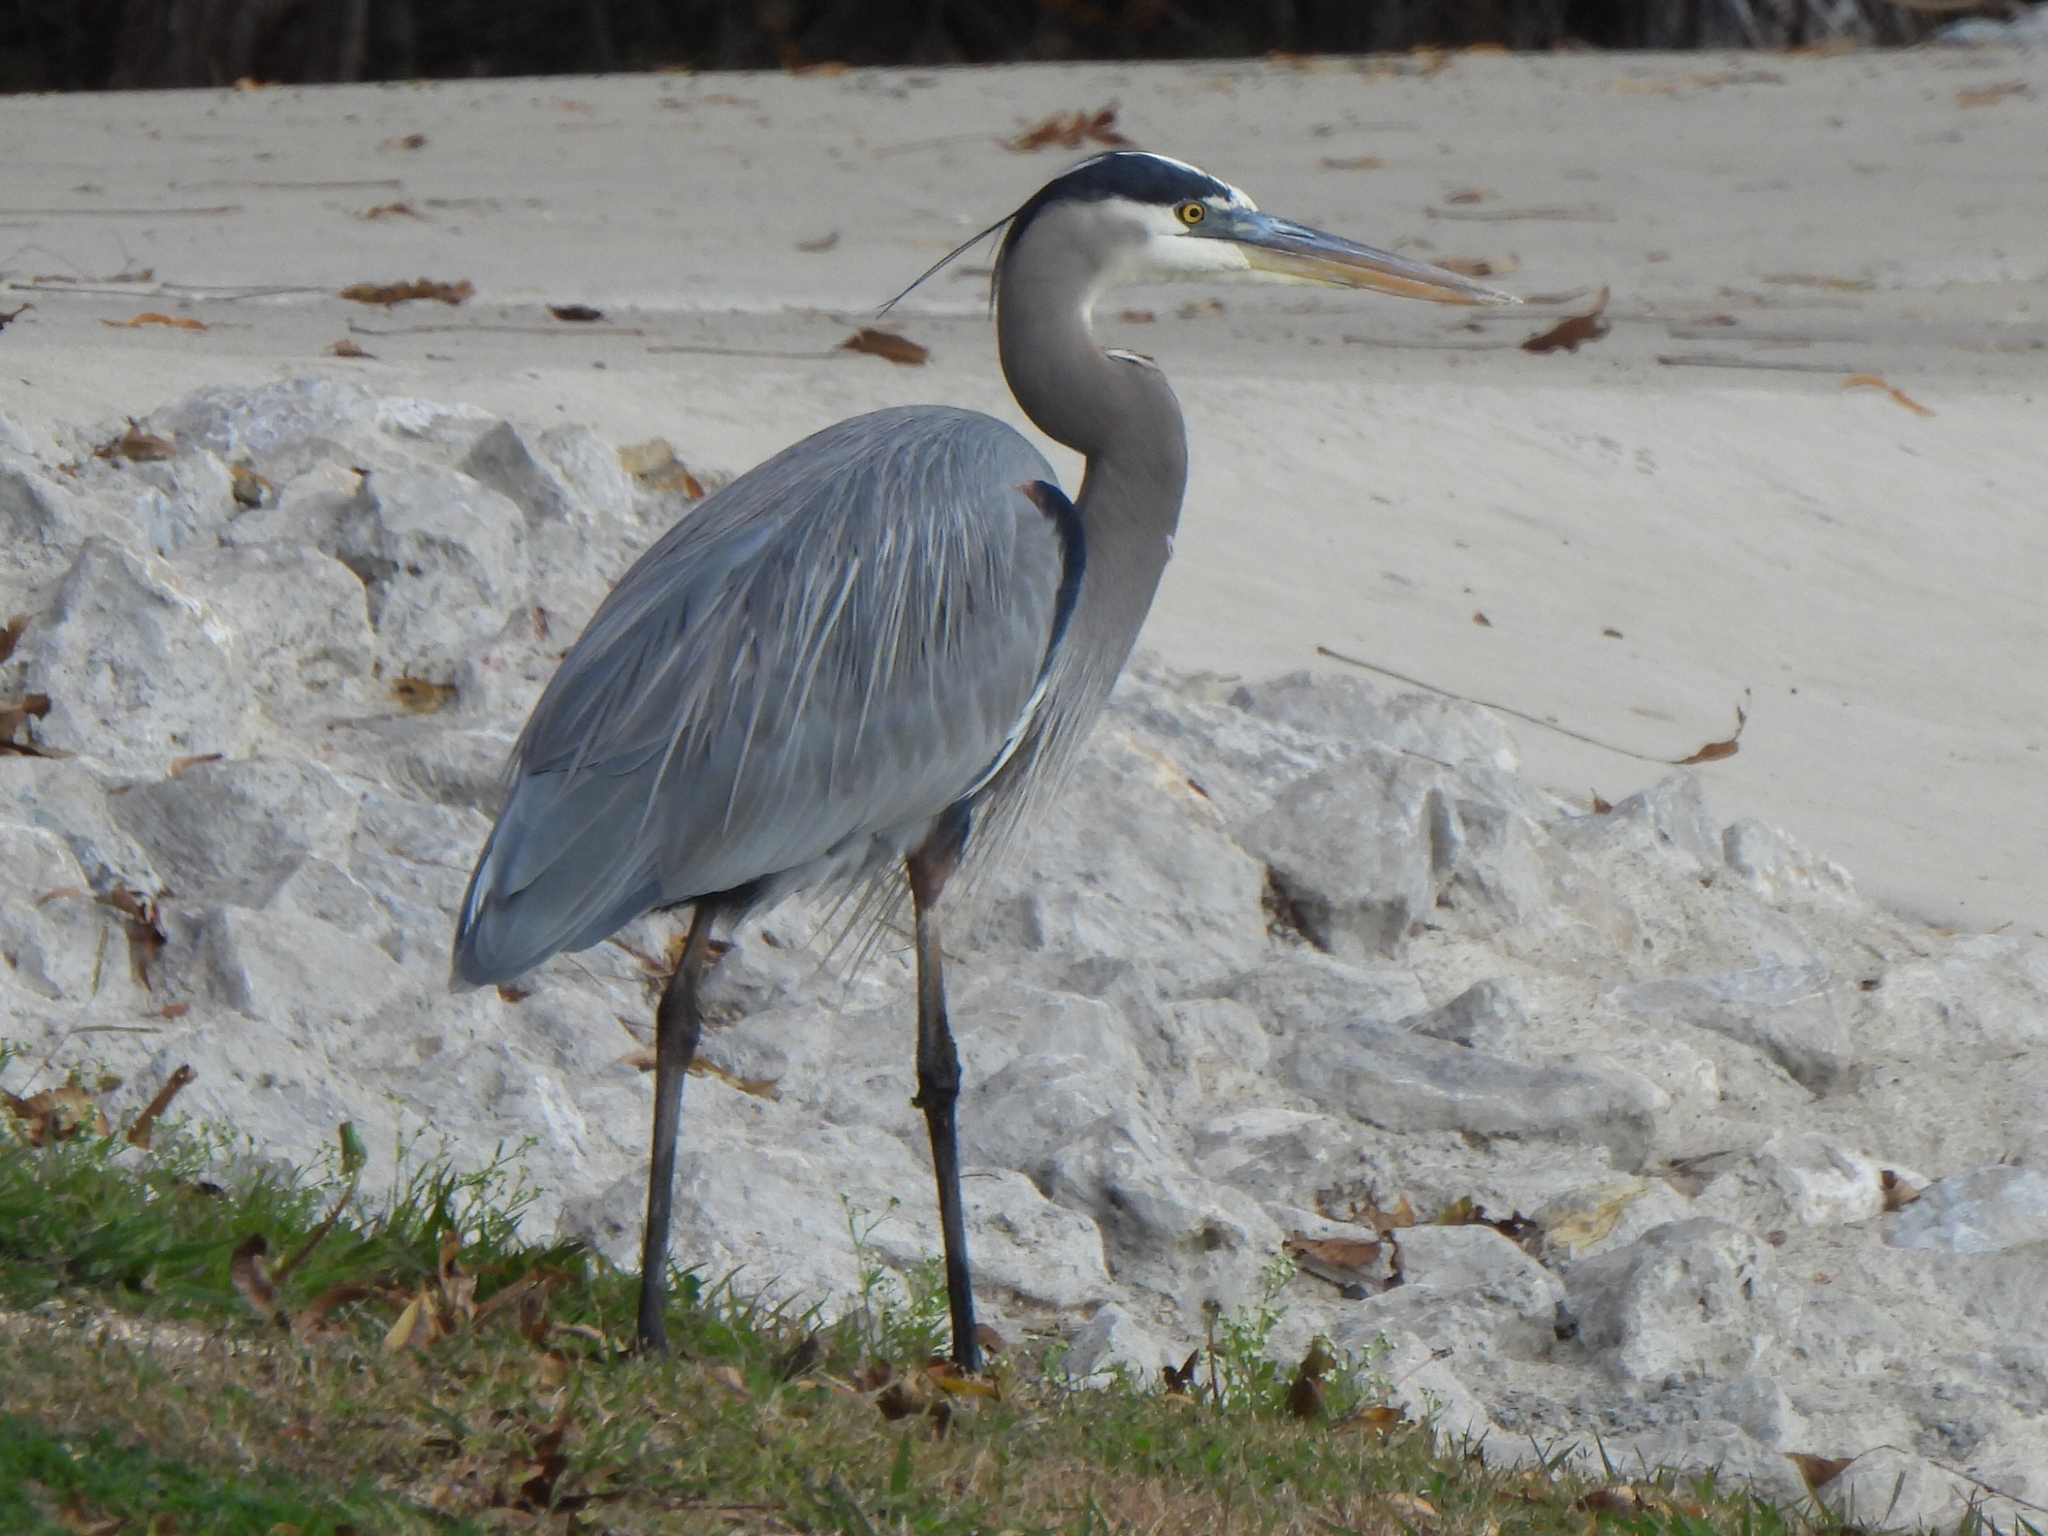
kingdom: Animalia
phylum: Chordata
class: Aves
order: Pelecaniformes
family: Ardeidae
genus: Ardea
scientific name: Ardea herodias
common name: Great blue heron
